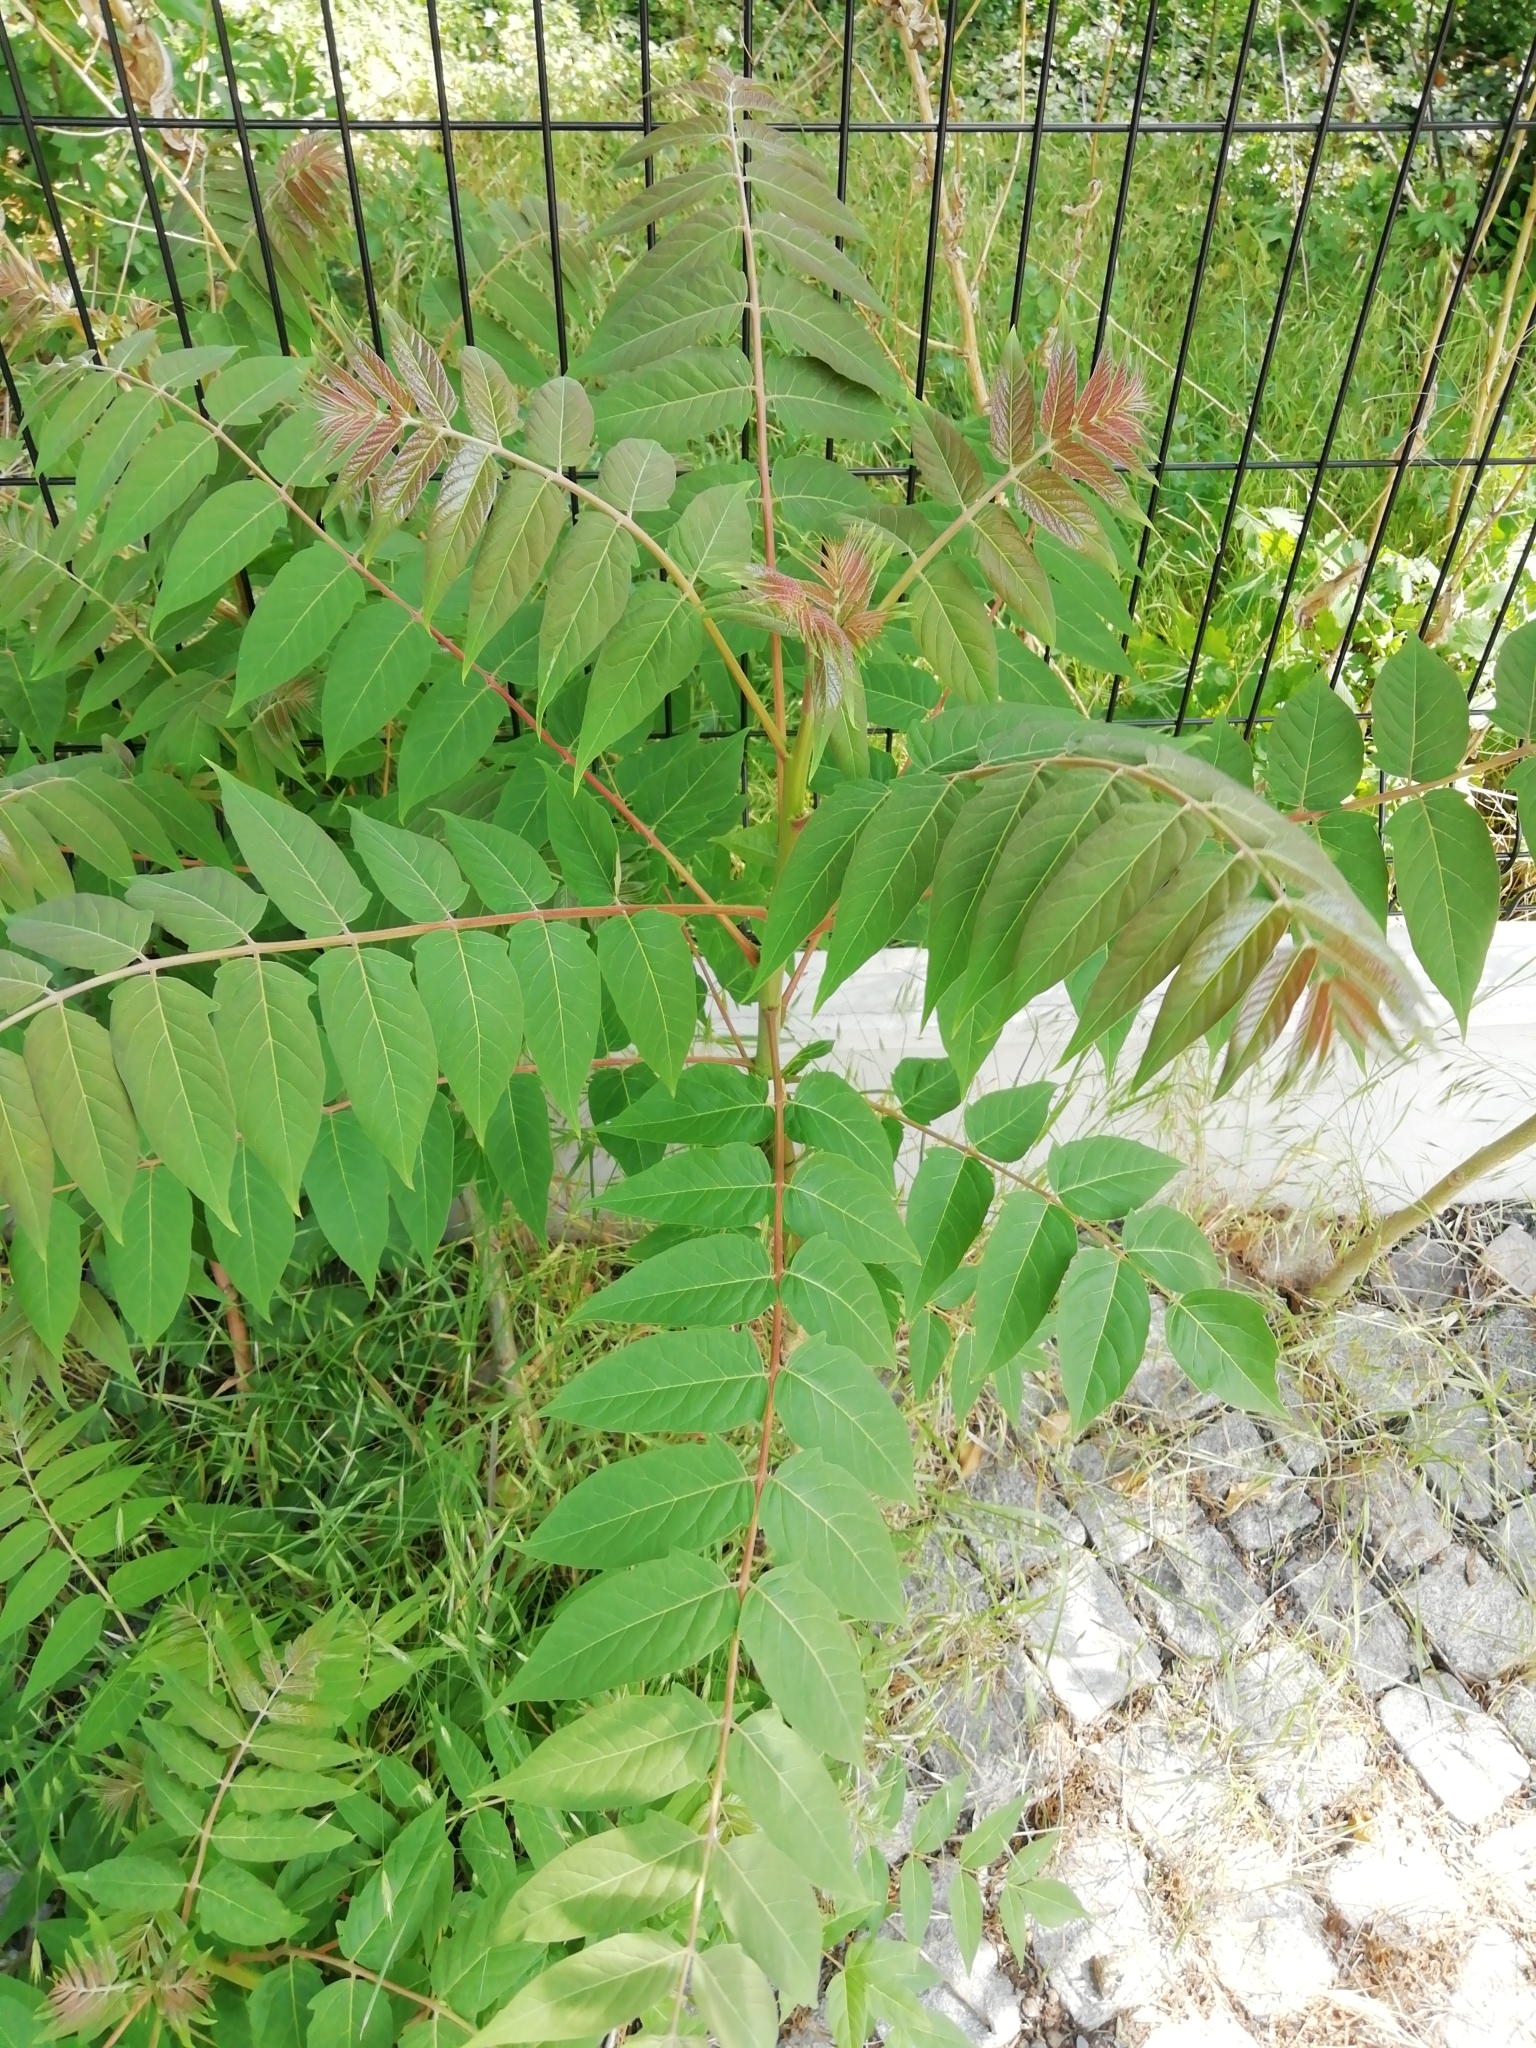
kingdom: Plantae
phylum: Tracheophyta
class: Magnoliopsida
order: Sapindales
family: Simaroubaceae
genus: Ailanthus
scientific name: Ailanthus altissima
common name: Tree-of-heaven
